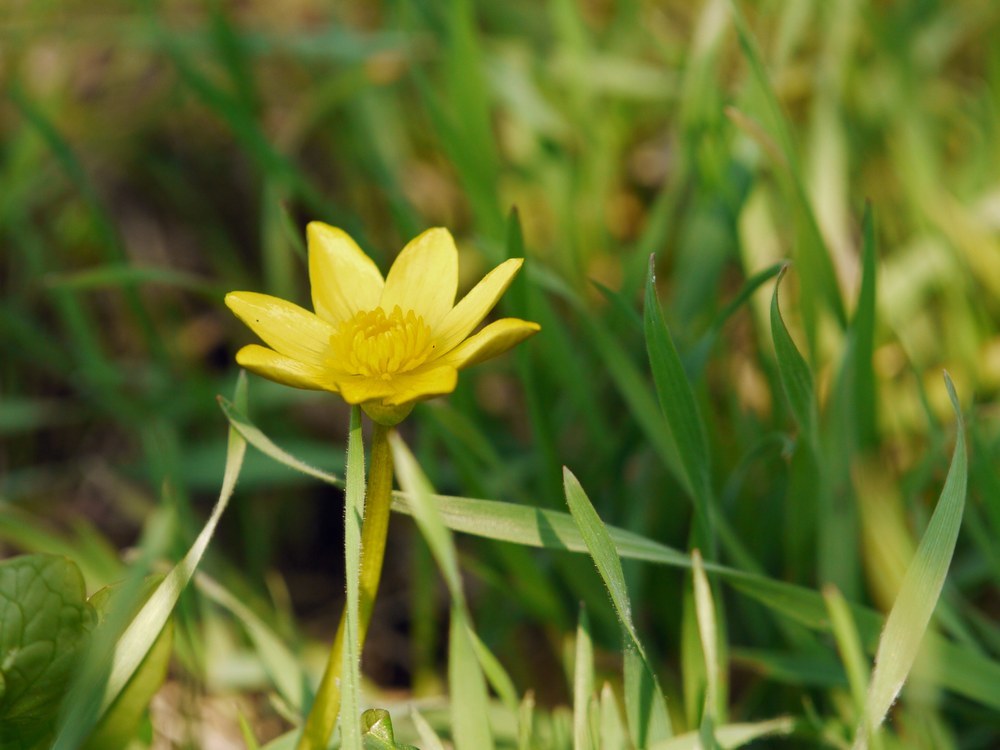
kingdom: Plantae
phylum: Tracheophyta
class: Magnoliopsida
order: Ranunculales
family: Ranunculaceae
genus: Ficaria
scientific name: Ficaria
